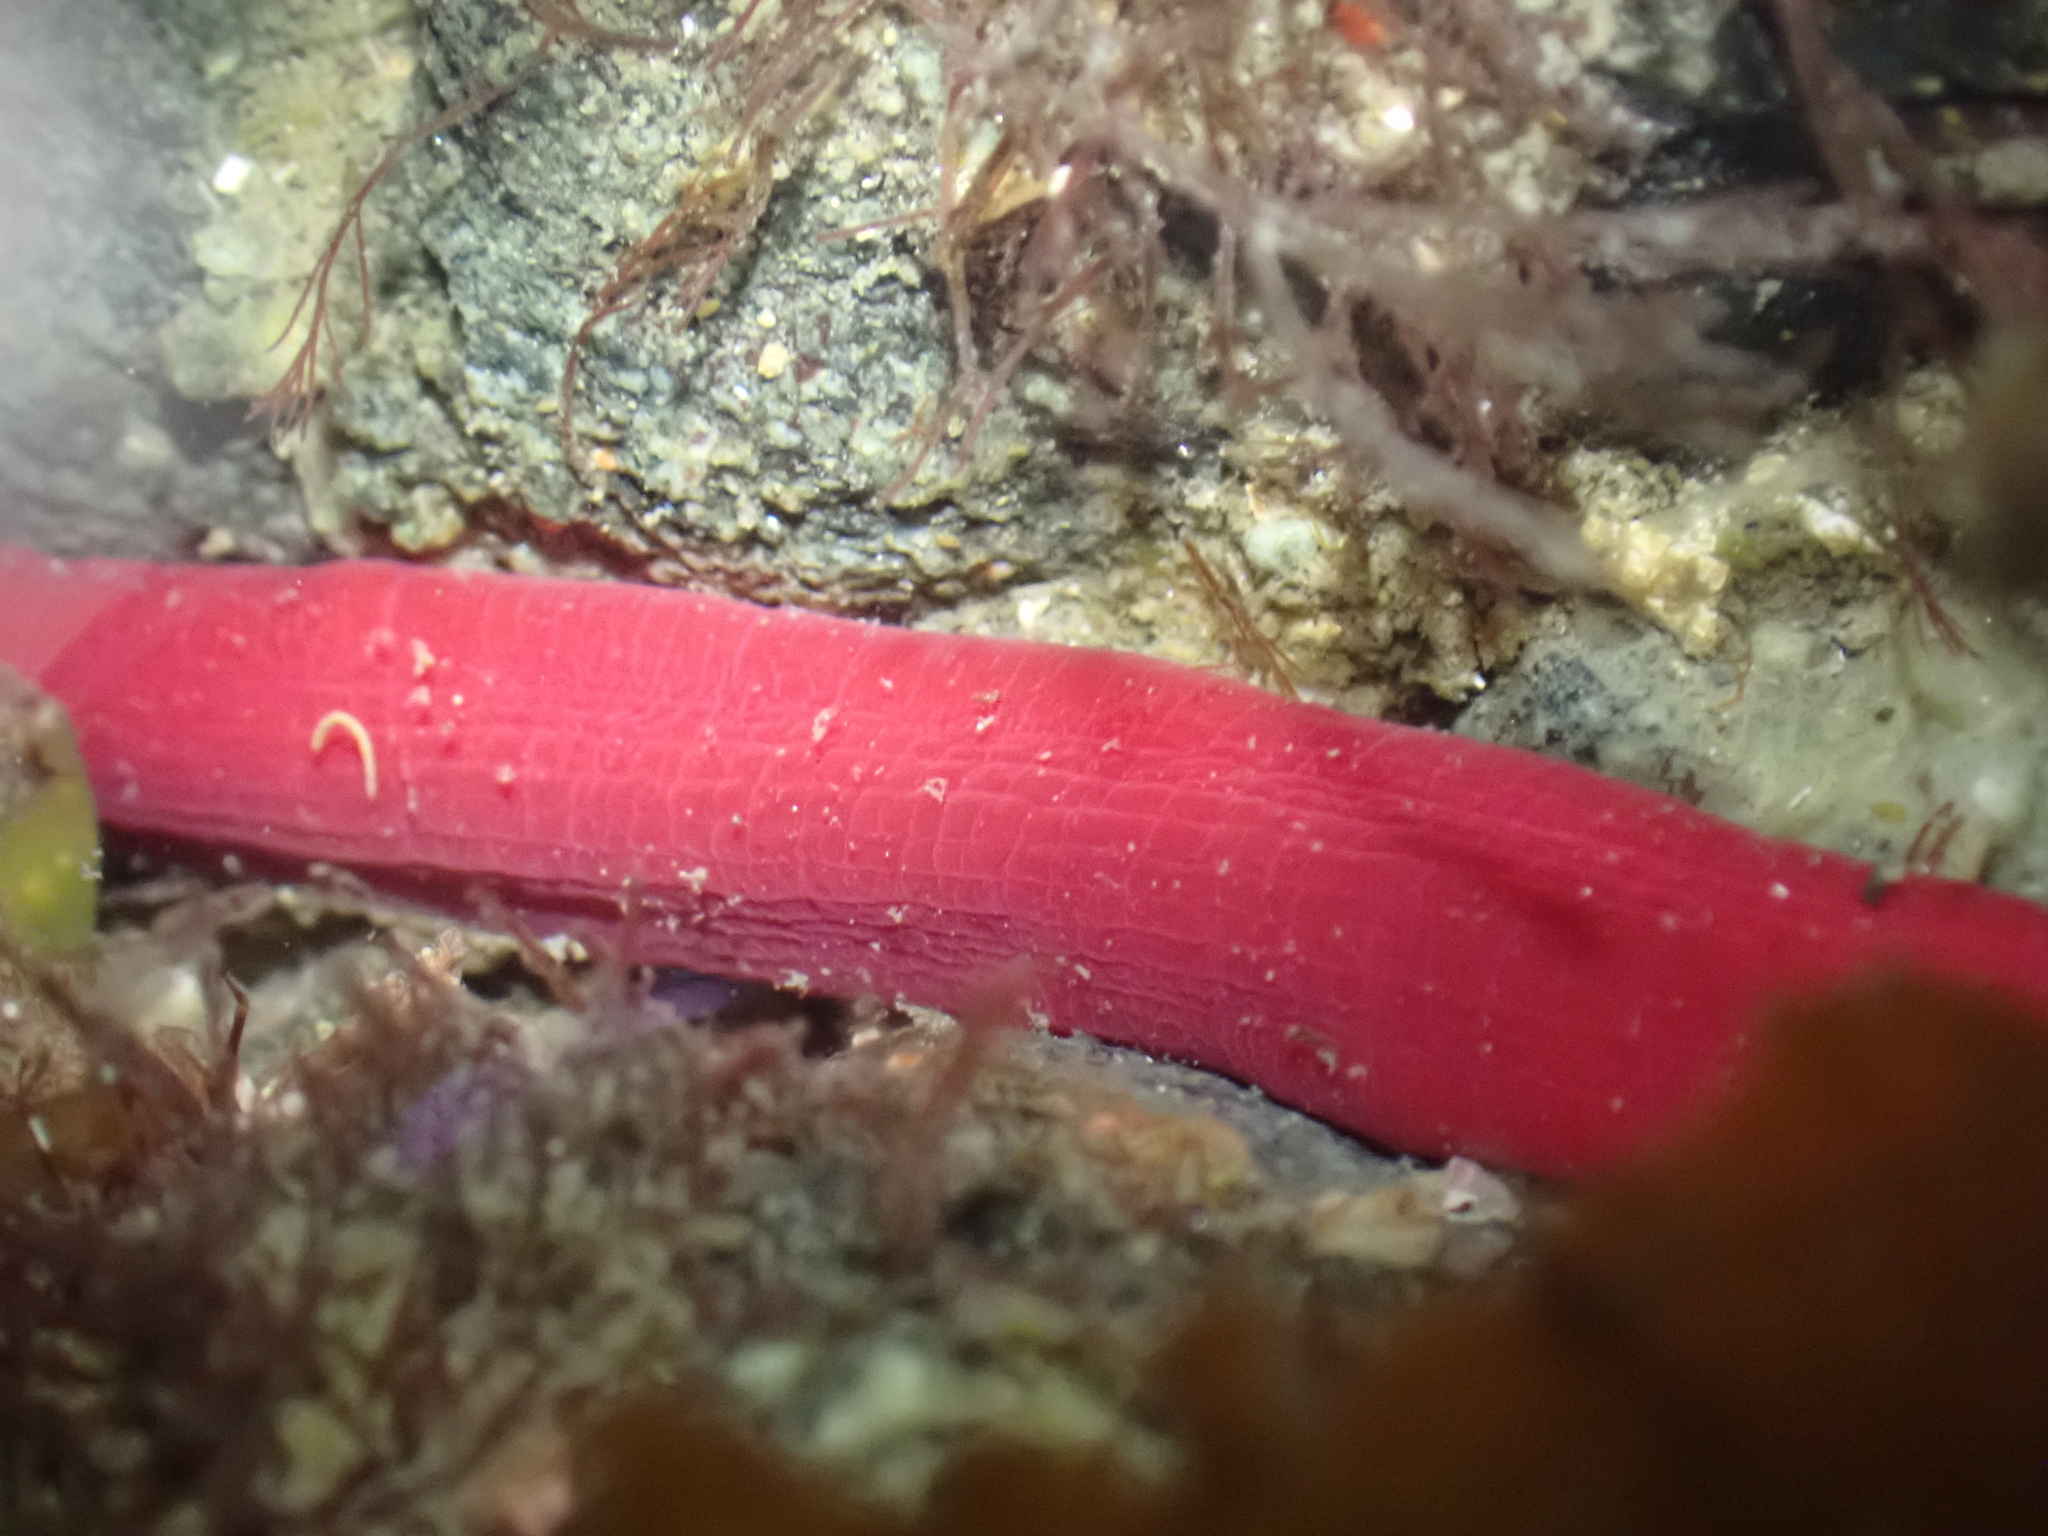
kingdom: Animalia
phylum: Nemertea
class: Pilidiophora
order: Heteronemertea
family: Lineidae
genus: Kulikovia
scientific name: Kulikovia montgomeryi
